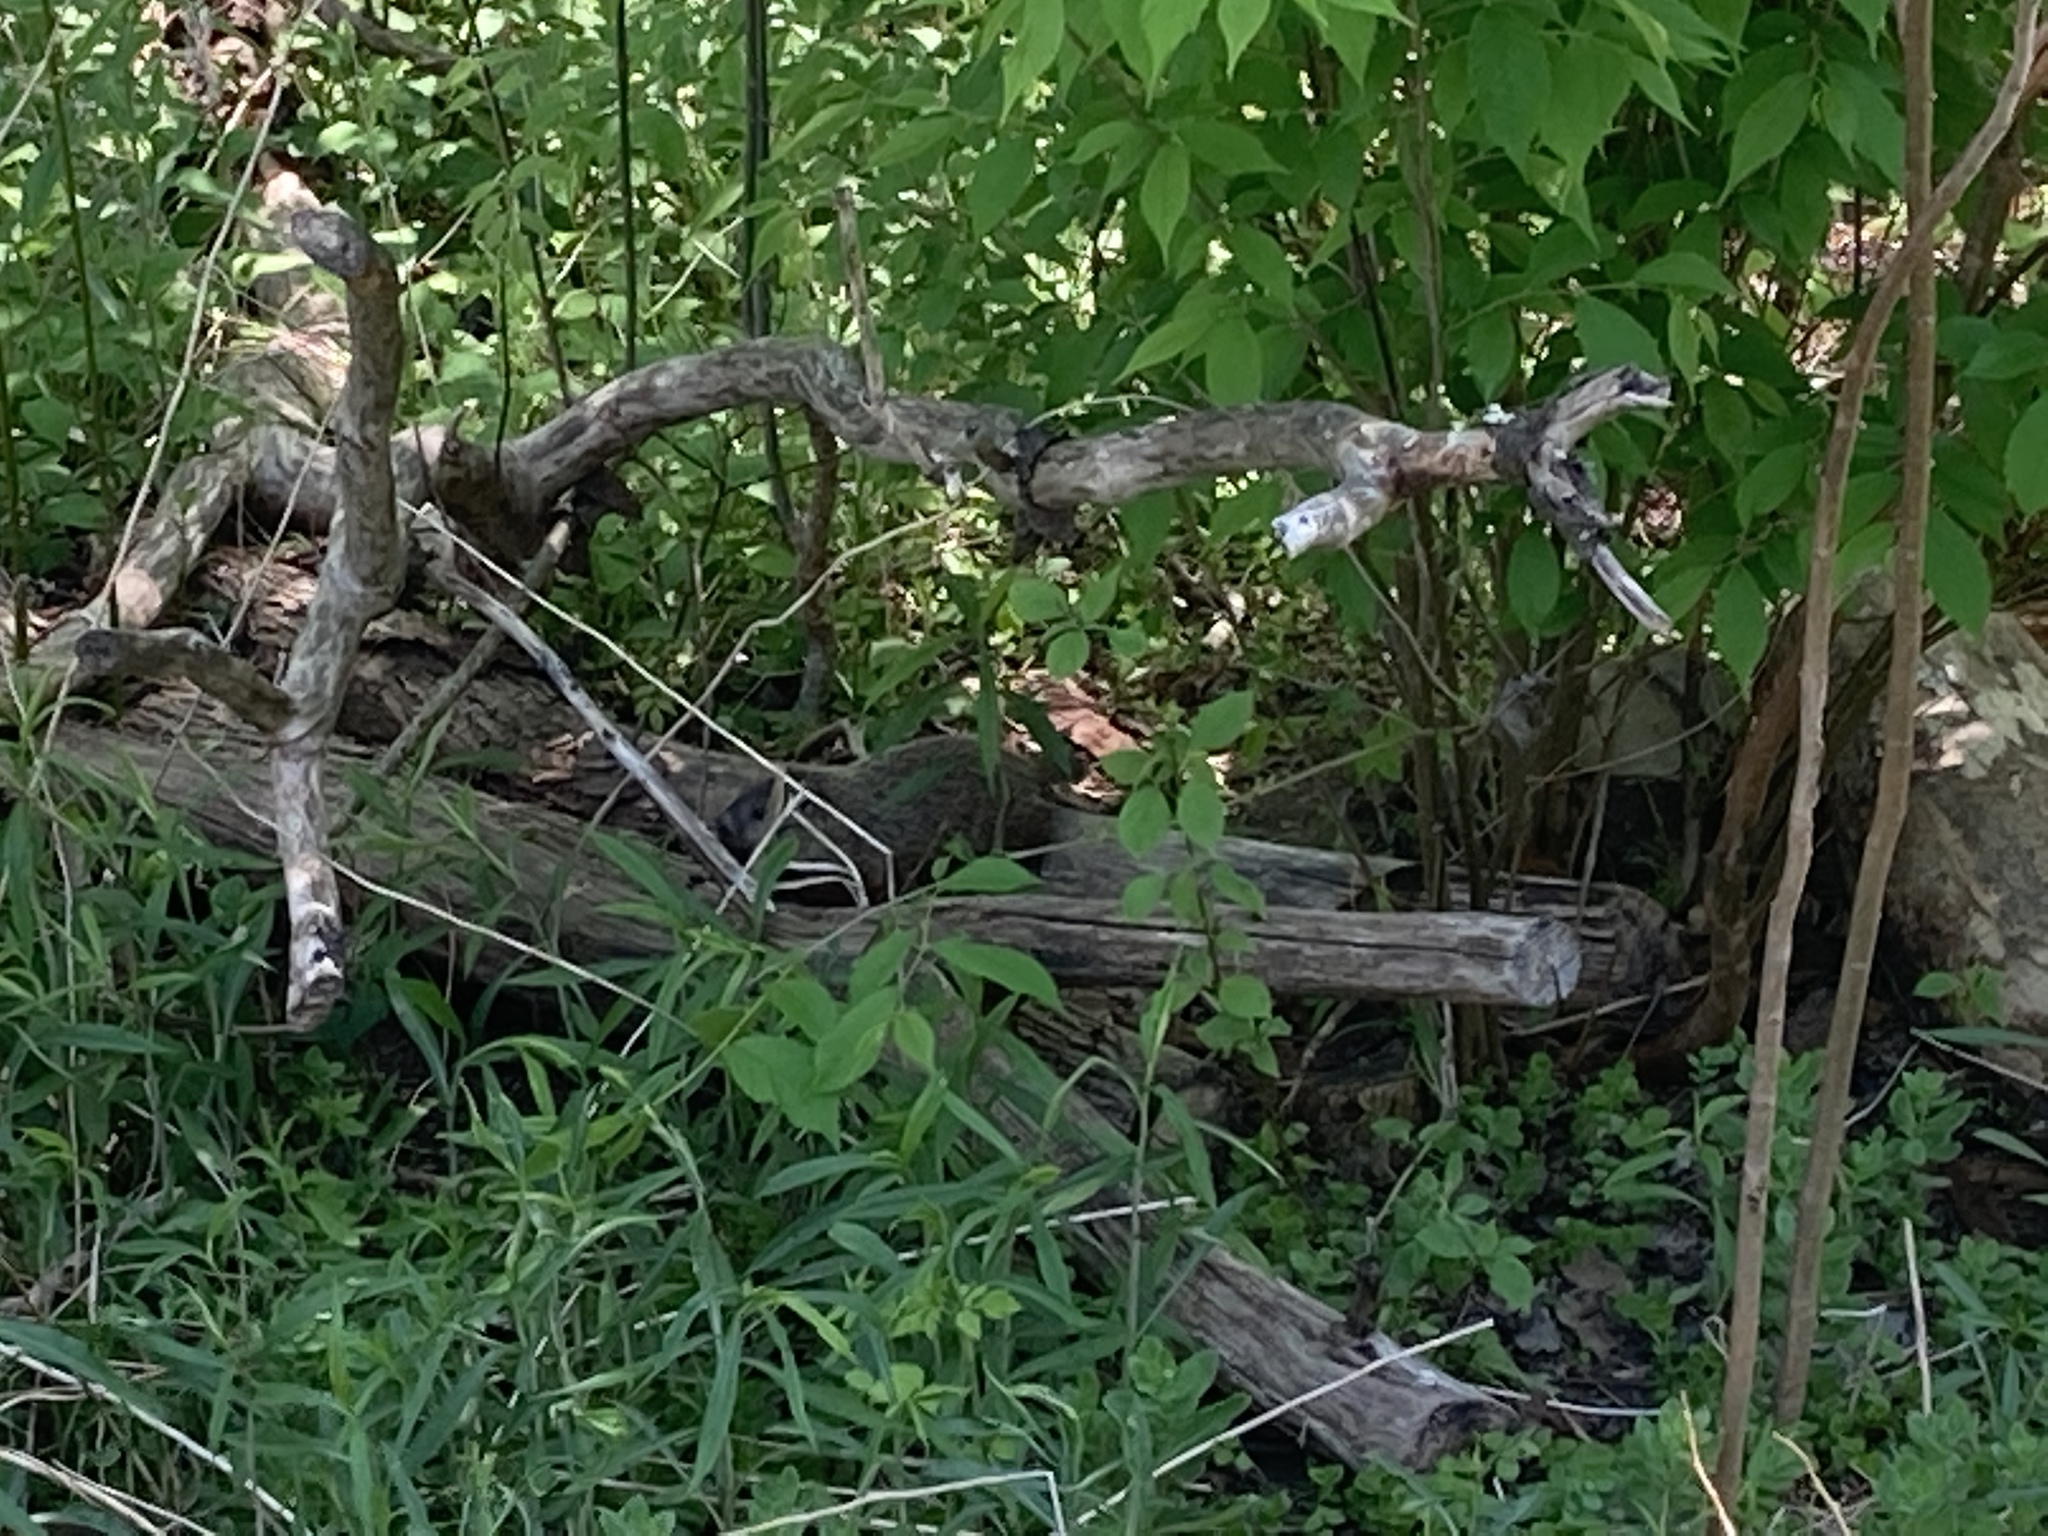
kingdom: Animalia
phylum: Chordata
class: Mammalia
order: Rodentia
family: Sciuridae
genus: Marmota
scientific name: Marmota monax
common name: Groundhog
